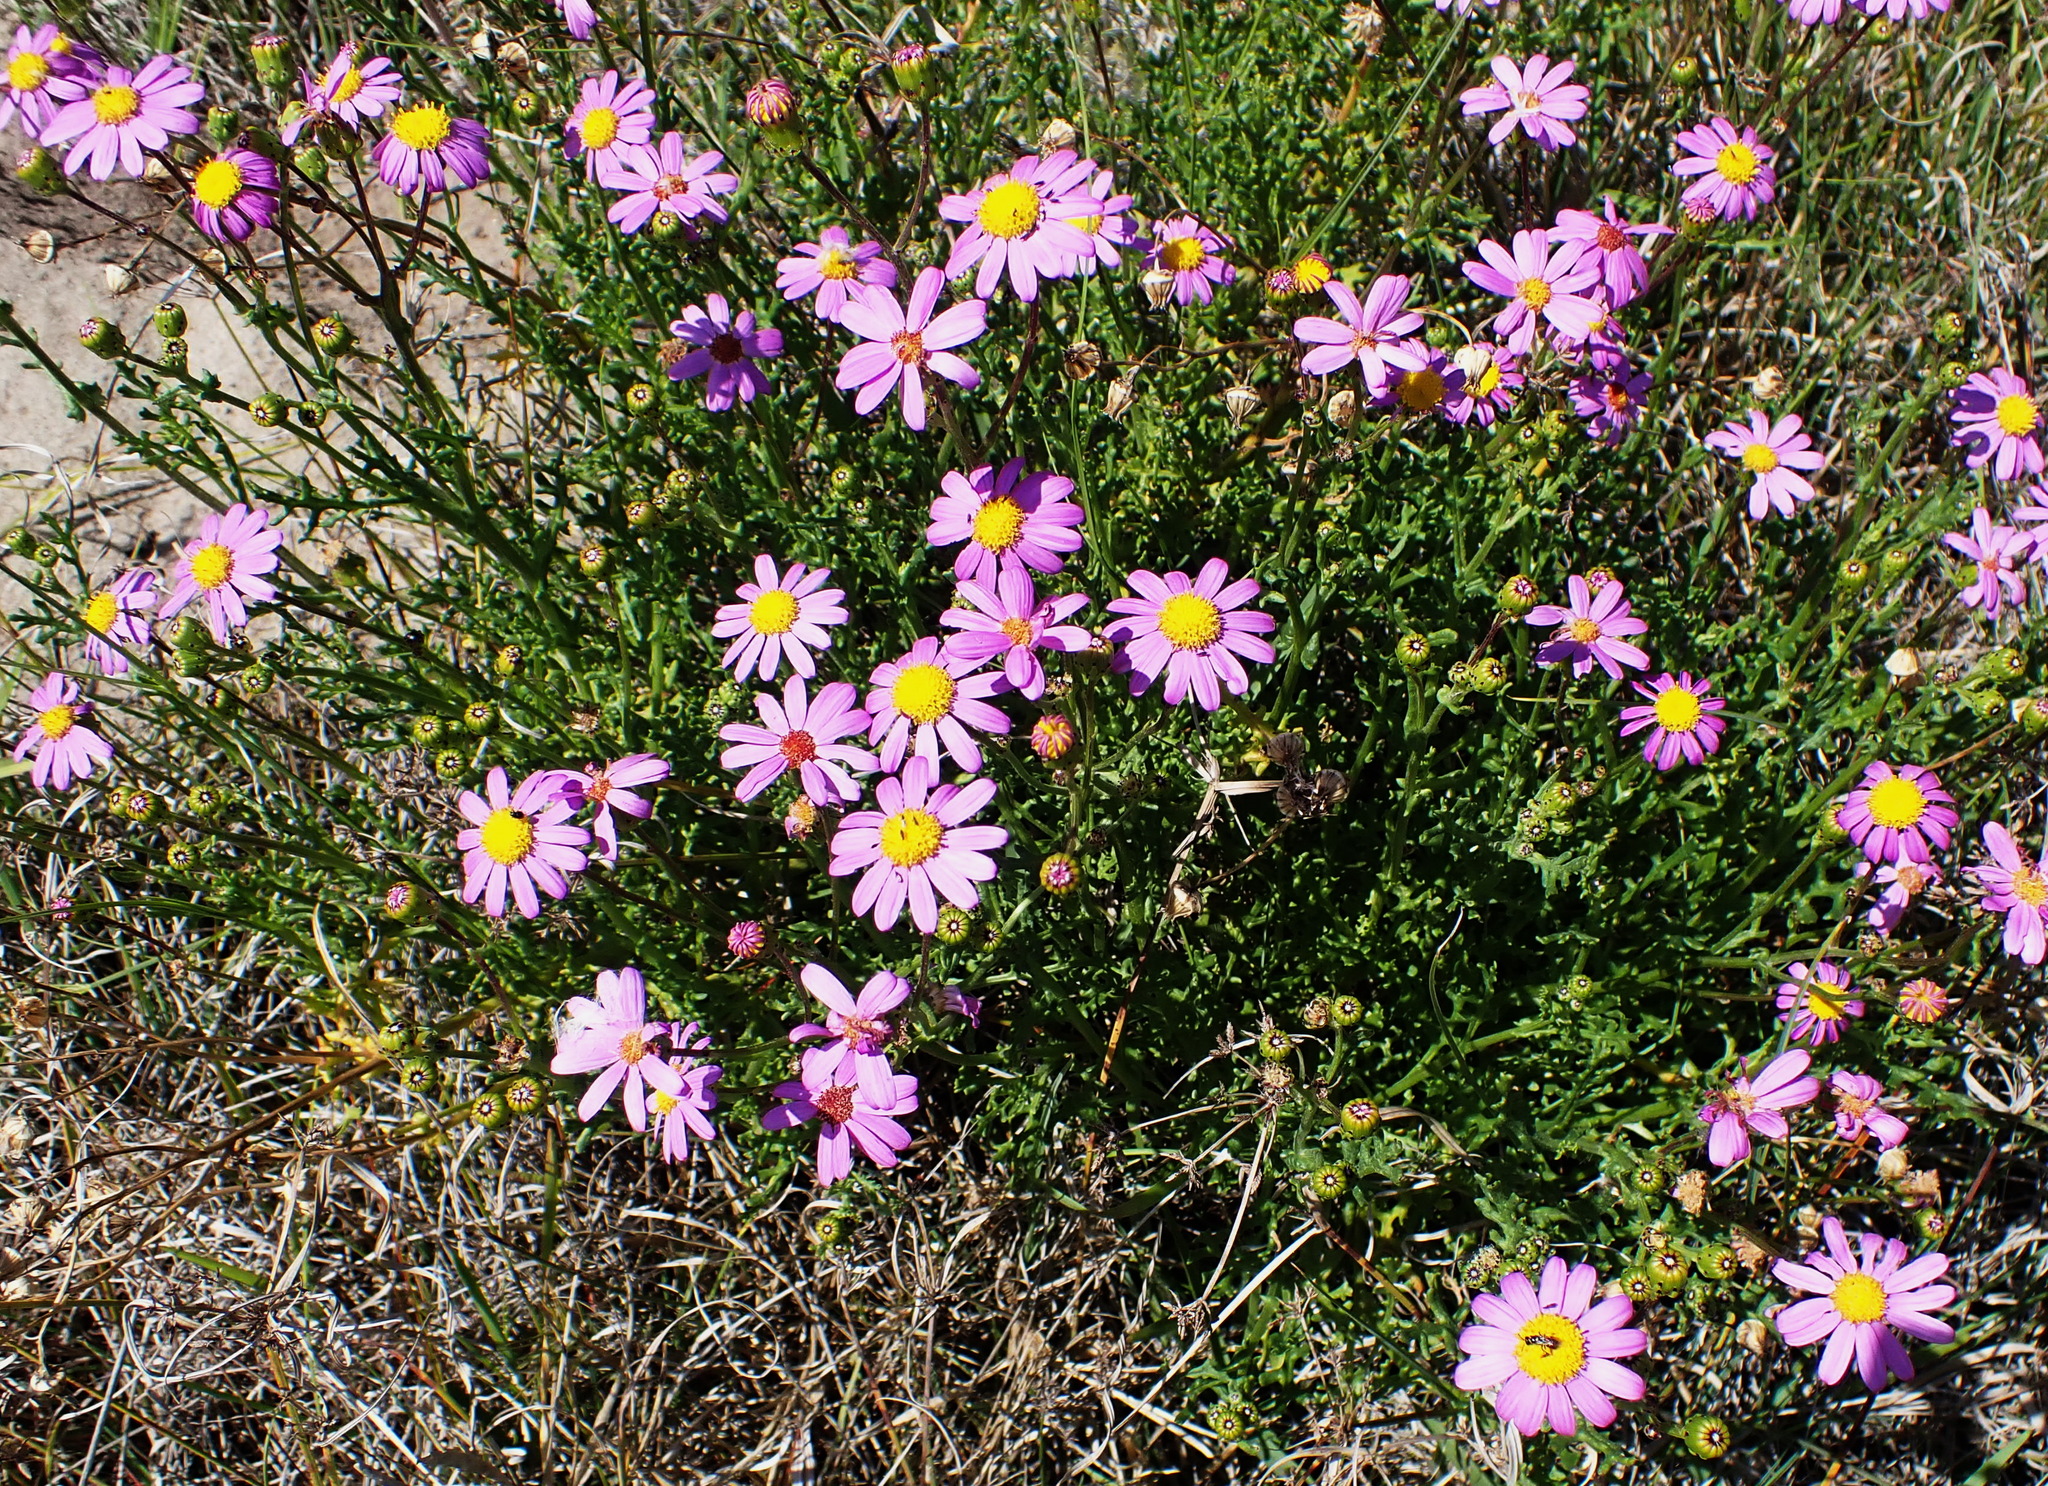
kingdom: Plantae
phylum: Tracheophyta
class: Magnoliopsida
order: Asterales
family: Asteraceae
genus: Senecio
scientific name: Senecio elegans
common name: Purple groundsel
